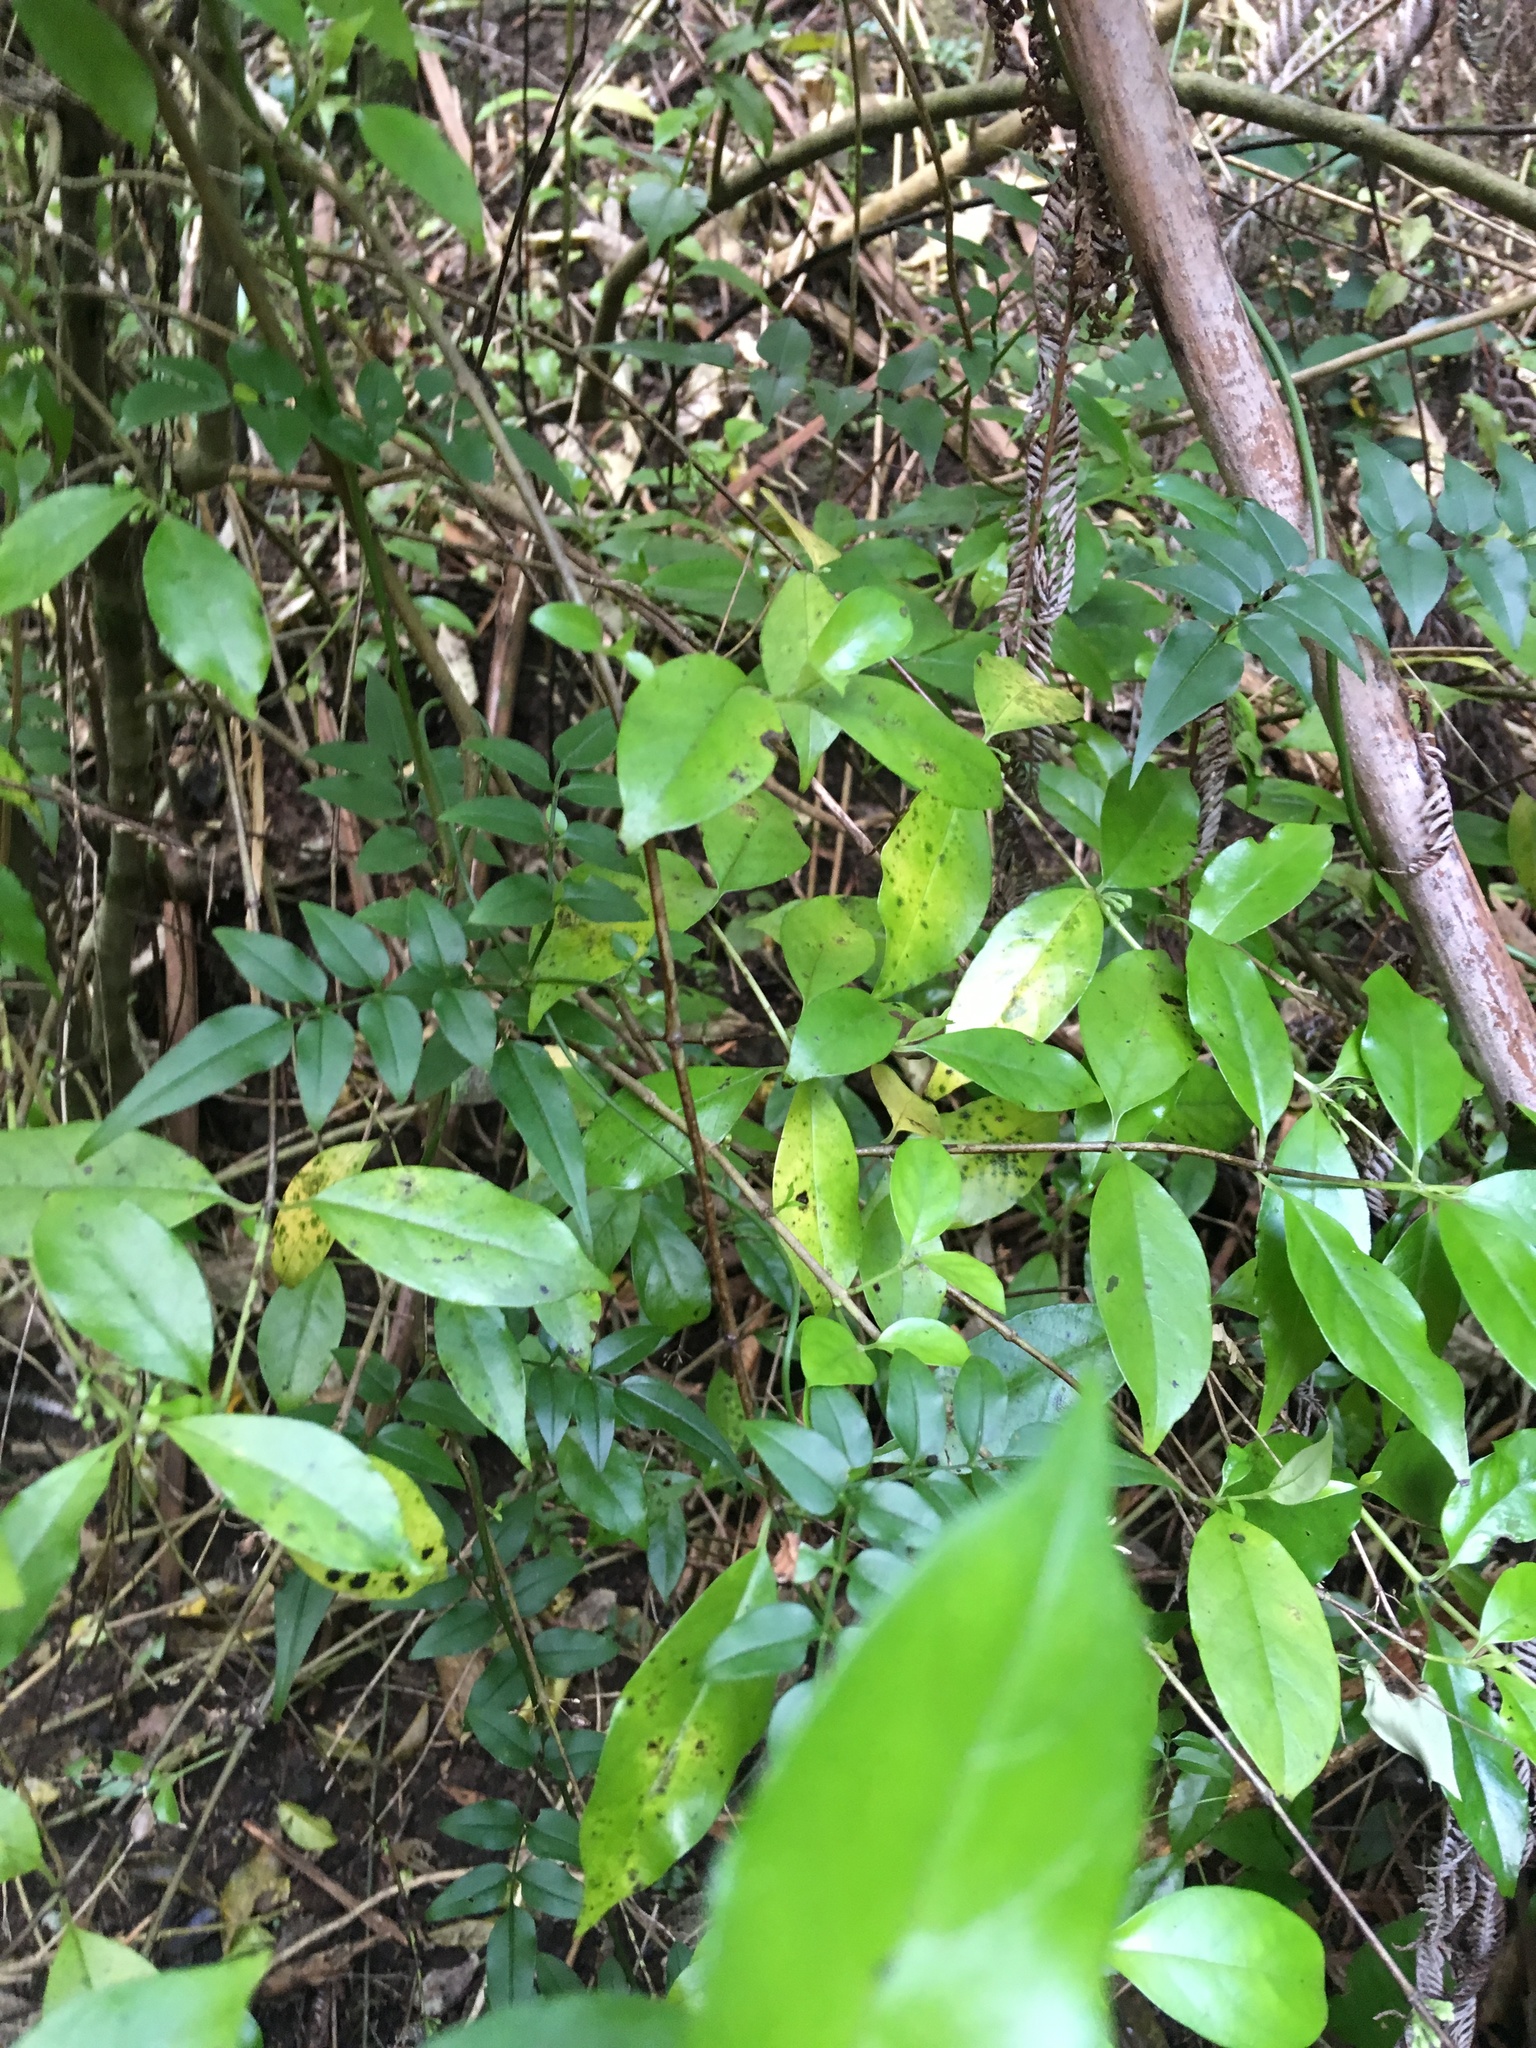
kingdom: Plantae
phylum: Tracheophyta
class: Magnoliopsida
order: Gentianales
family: Loganiaceae
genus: Geniostoma
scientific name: Geniostoma ligustrifolium
